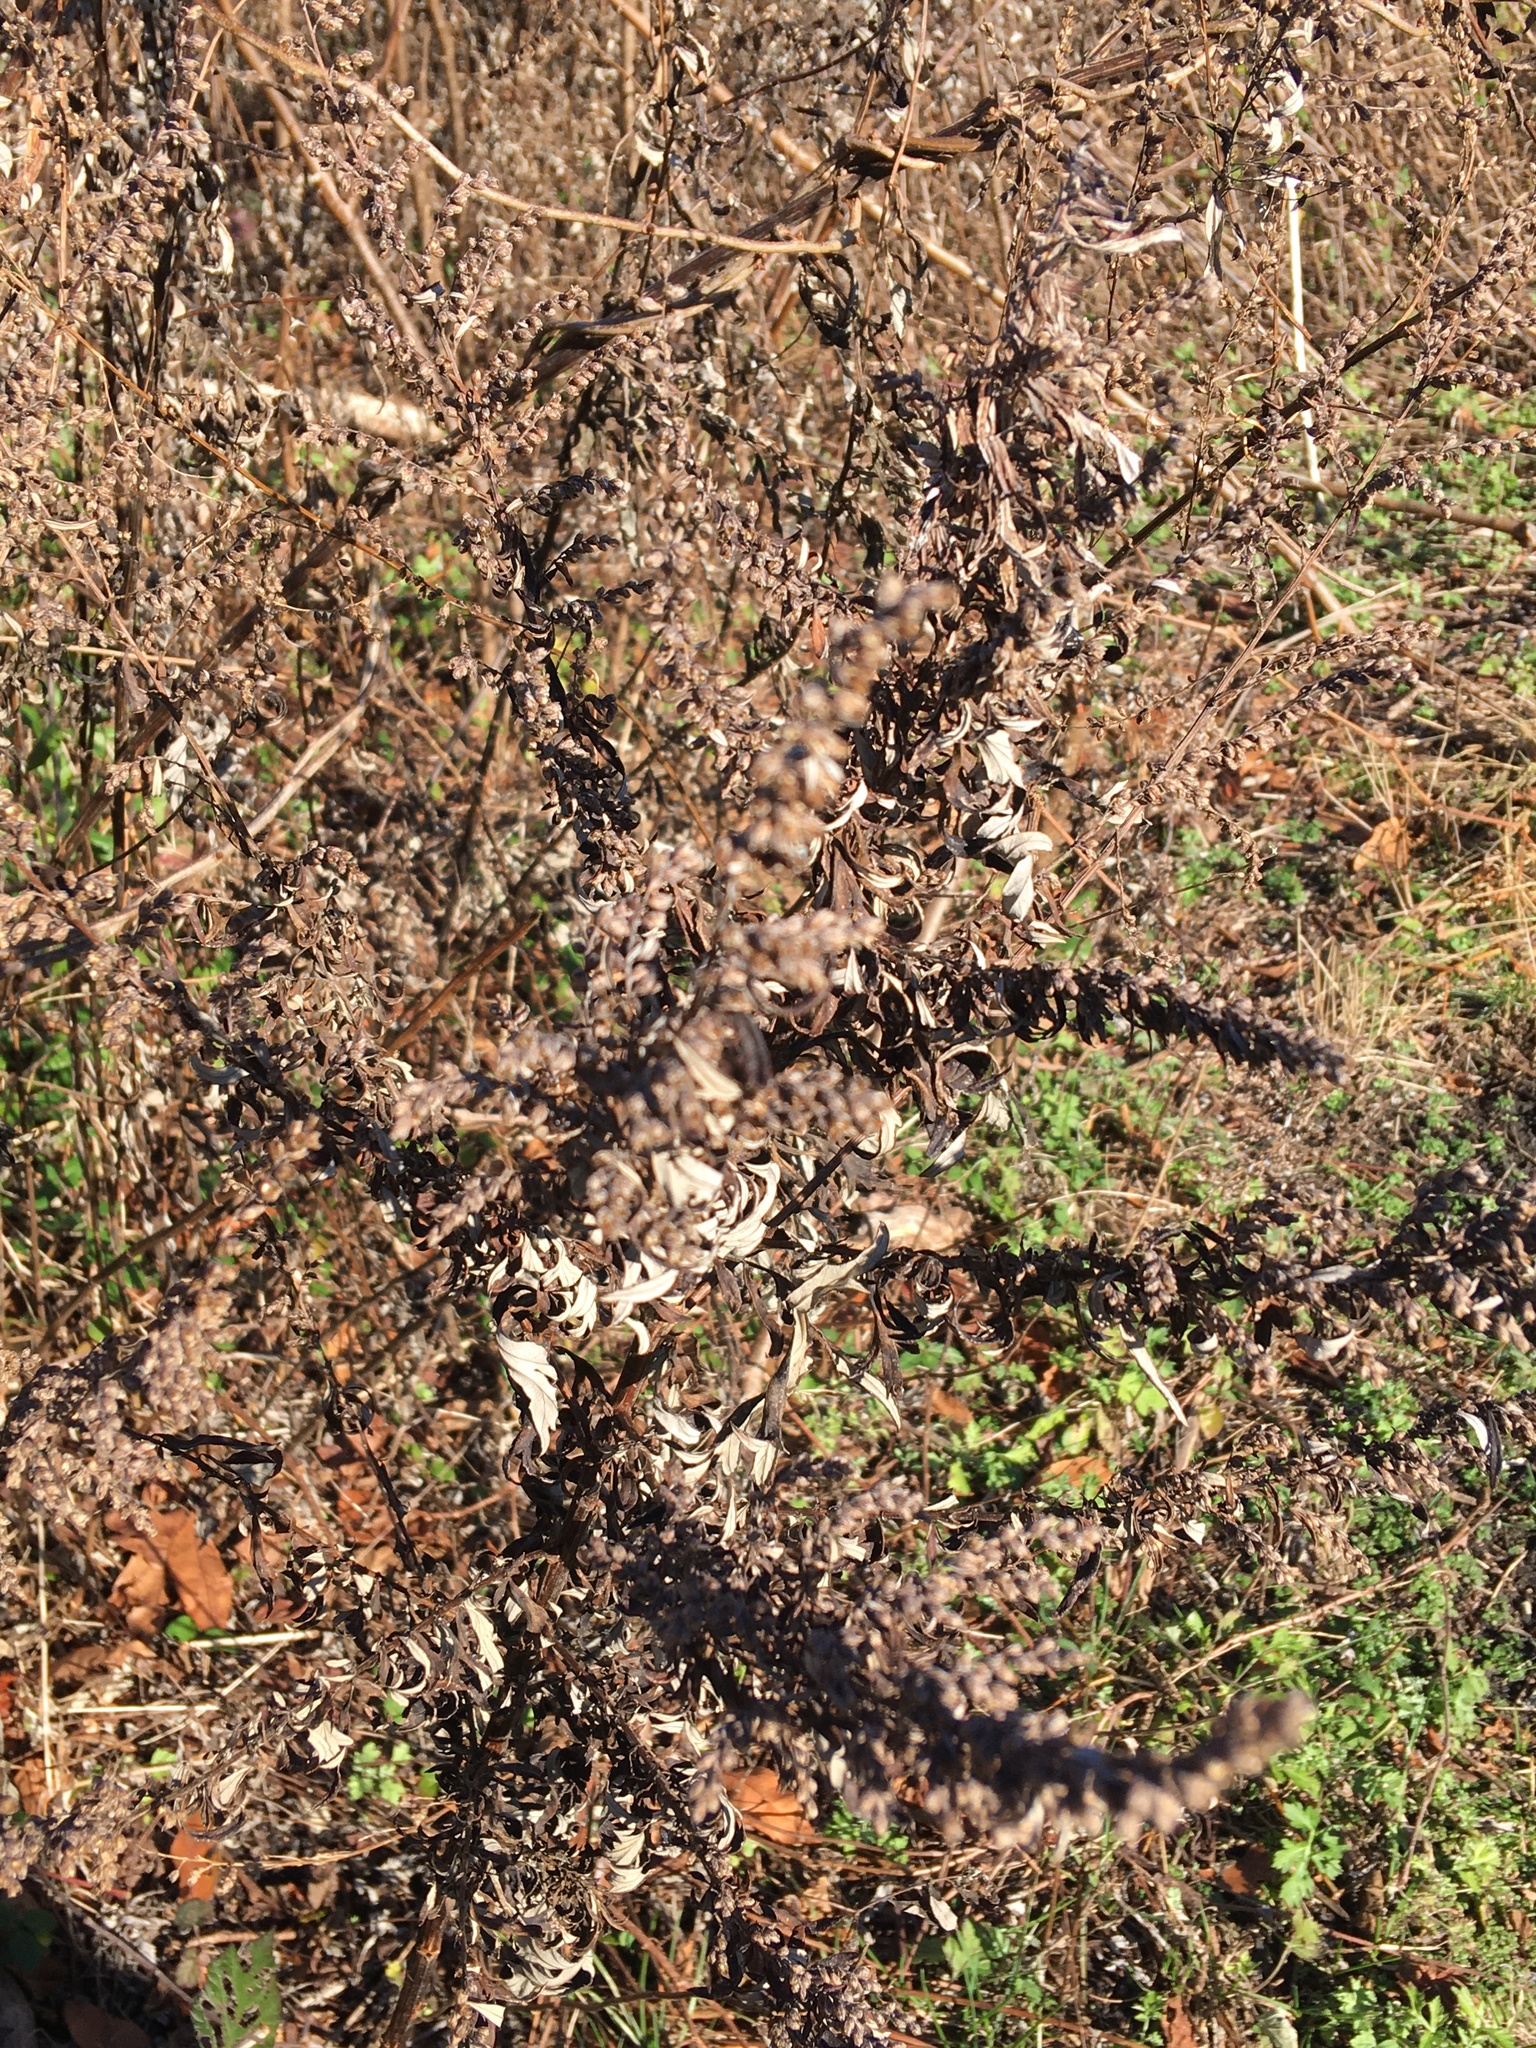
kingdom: Plantae
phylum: Tracheophyta
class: Magnoliopsida
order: Asterales
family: Asteraceae
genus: Artemisia
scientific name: Artemisia vulgaris
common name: Mugwort
